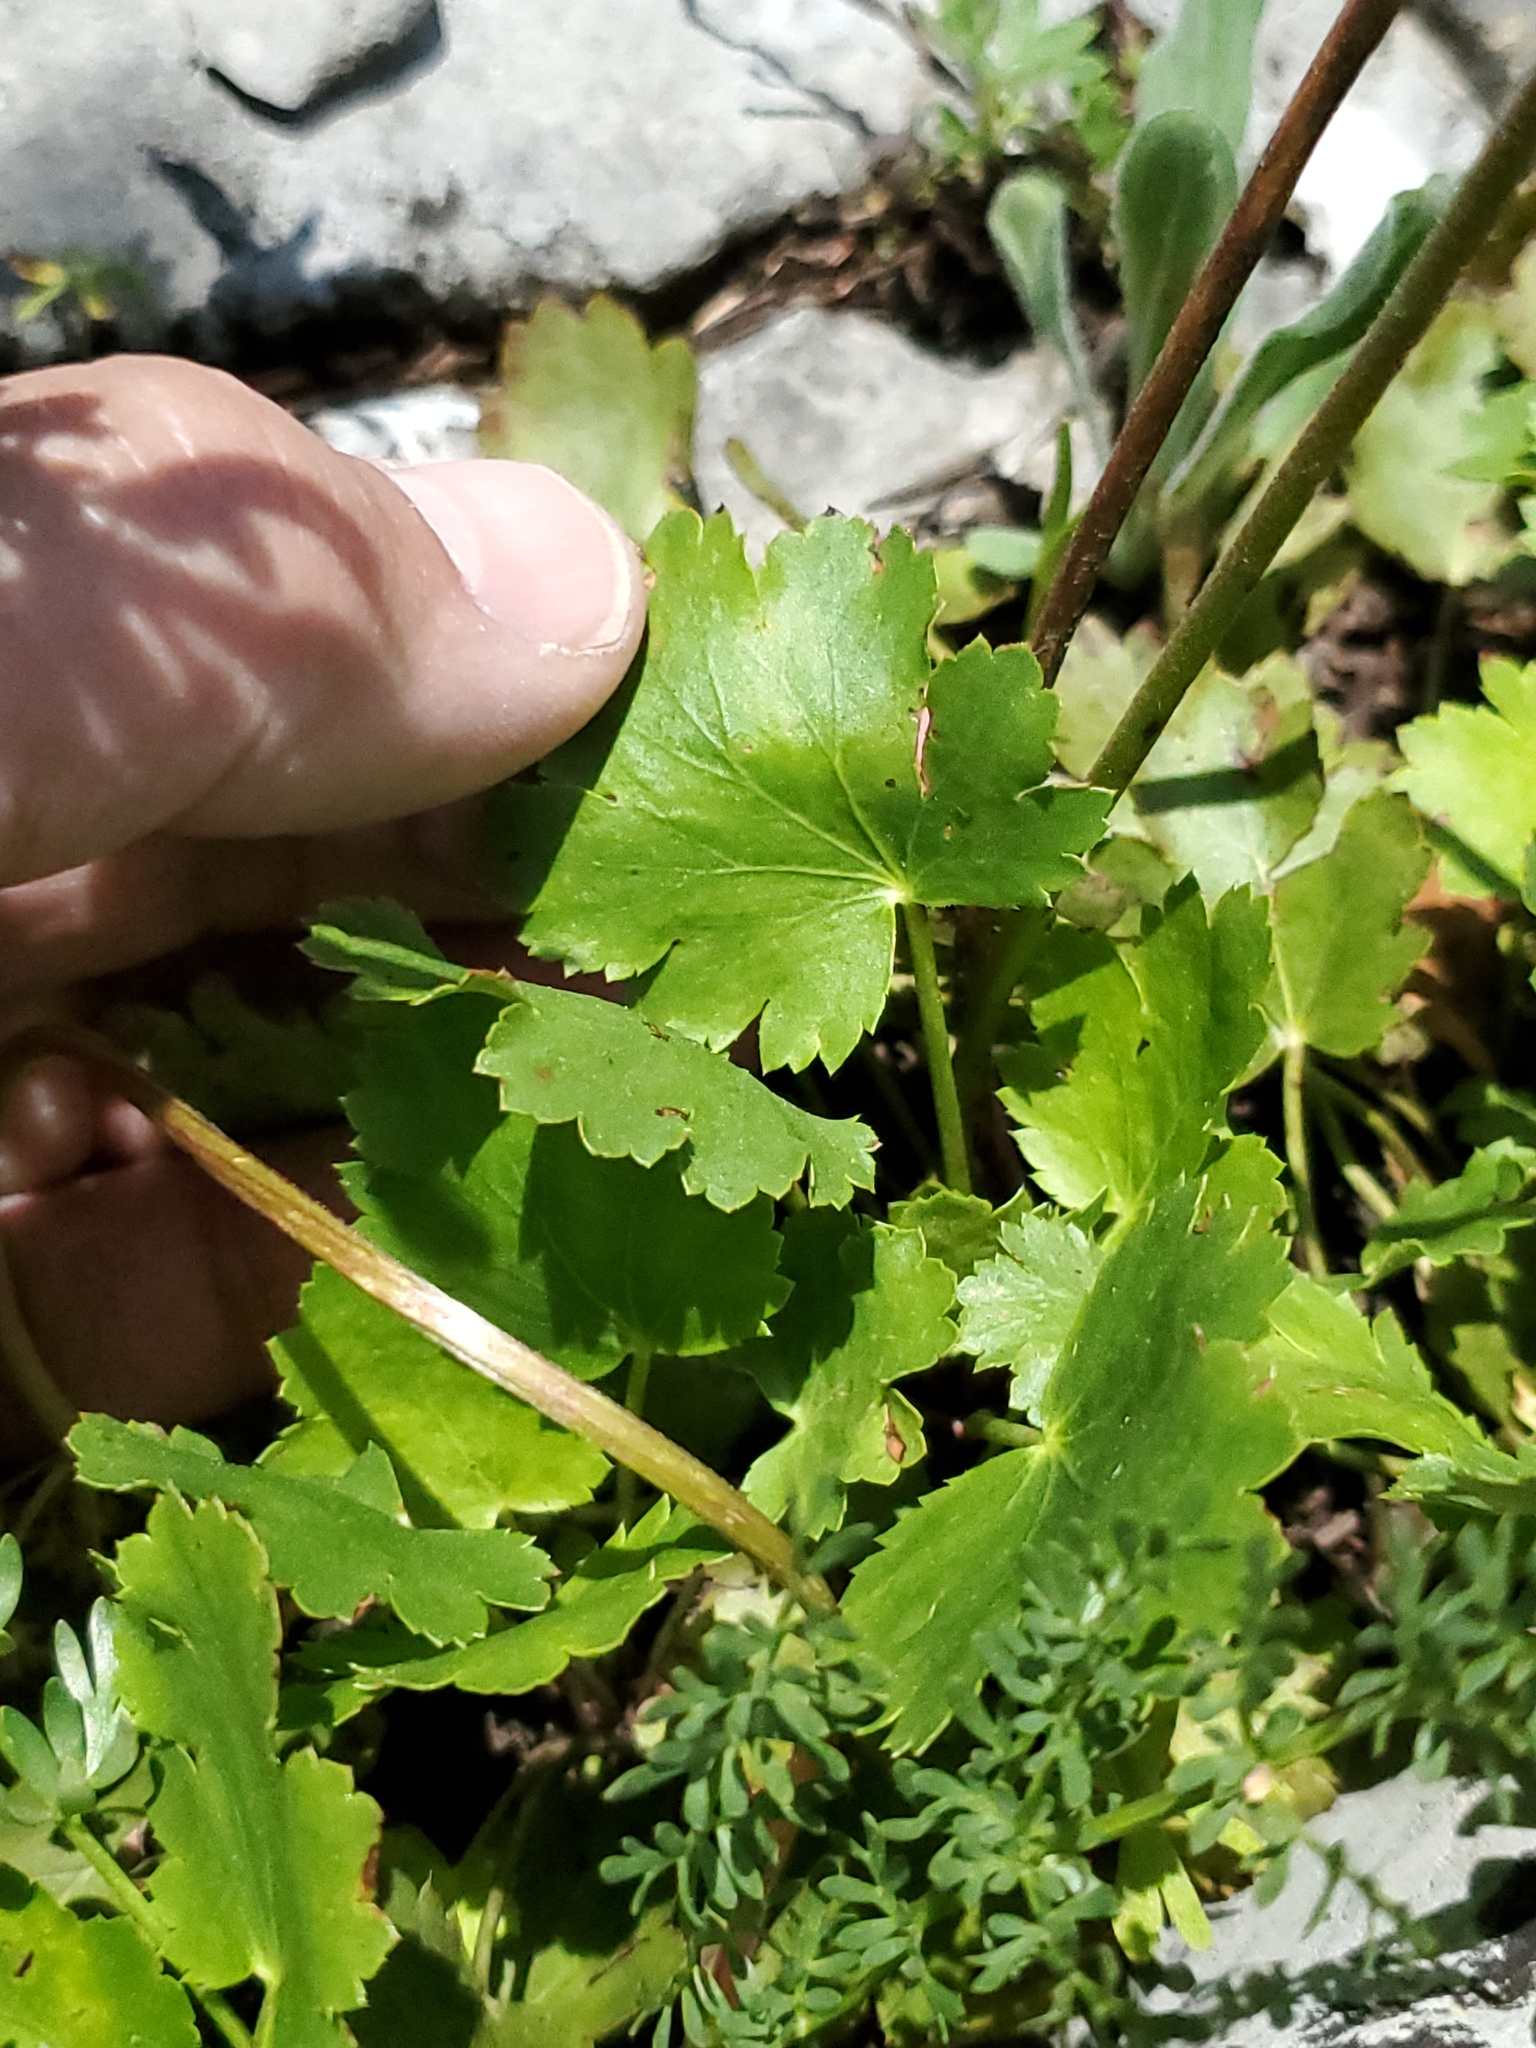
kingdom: Plantae
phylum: Tracheophyta
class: Magnoliopsida
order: Saxifragales
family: Saxifragaceae
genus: Heuchera
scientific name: Heuchera cylindrica
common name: Mat alumroot
